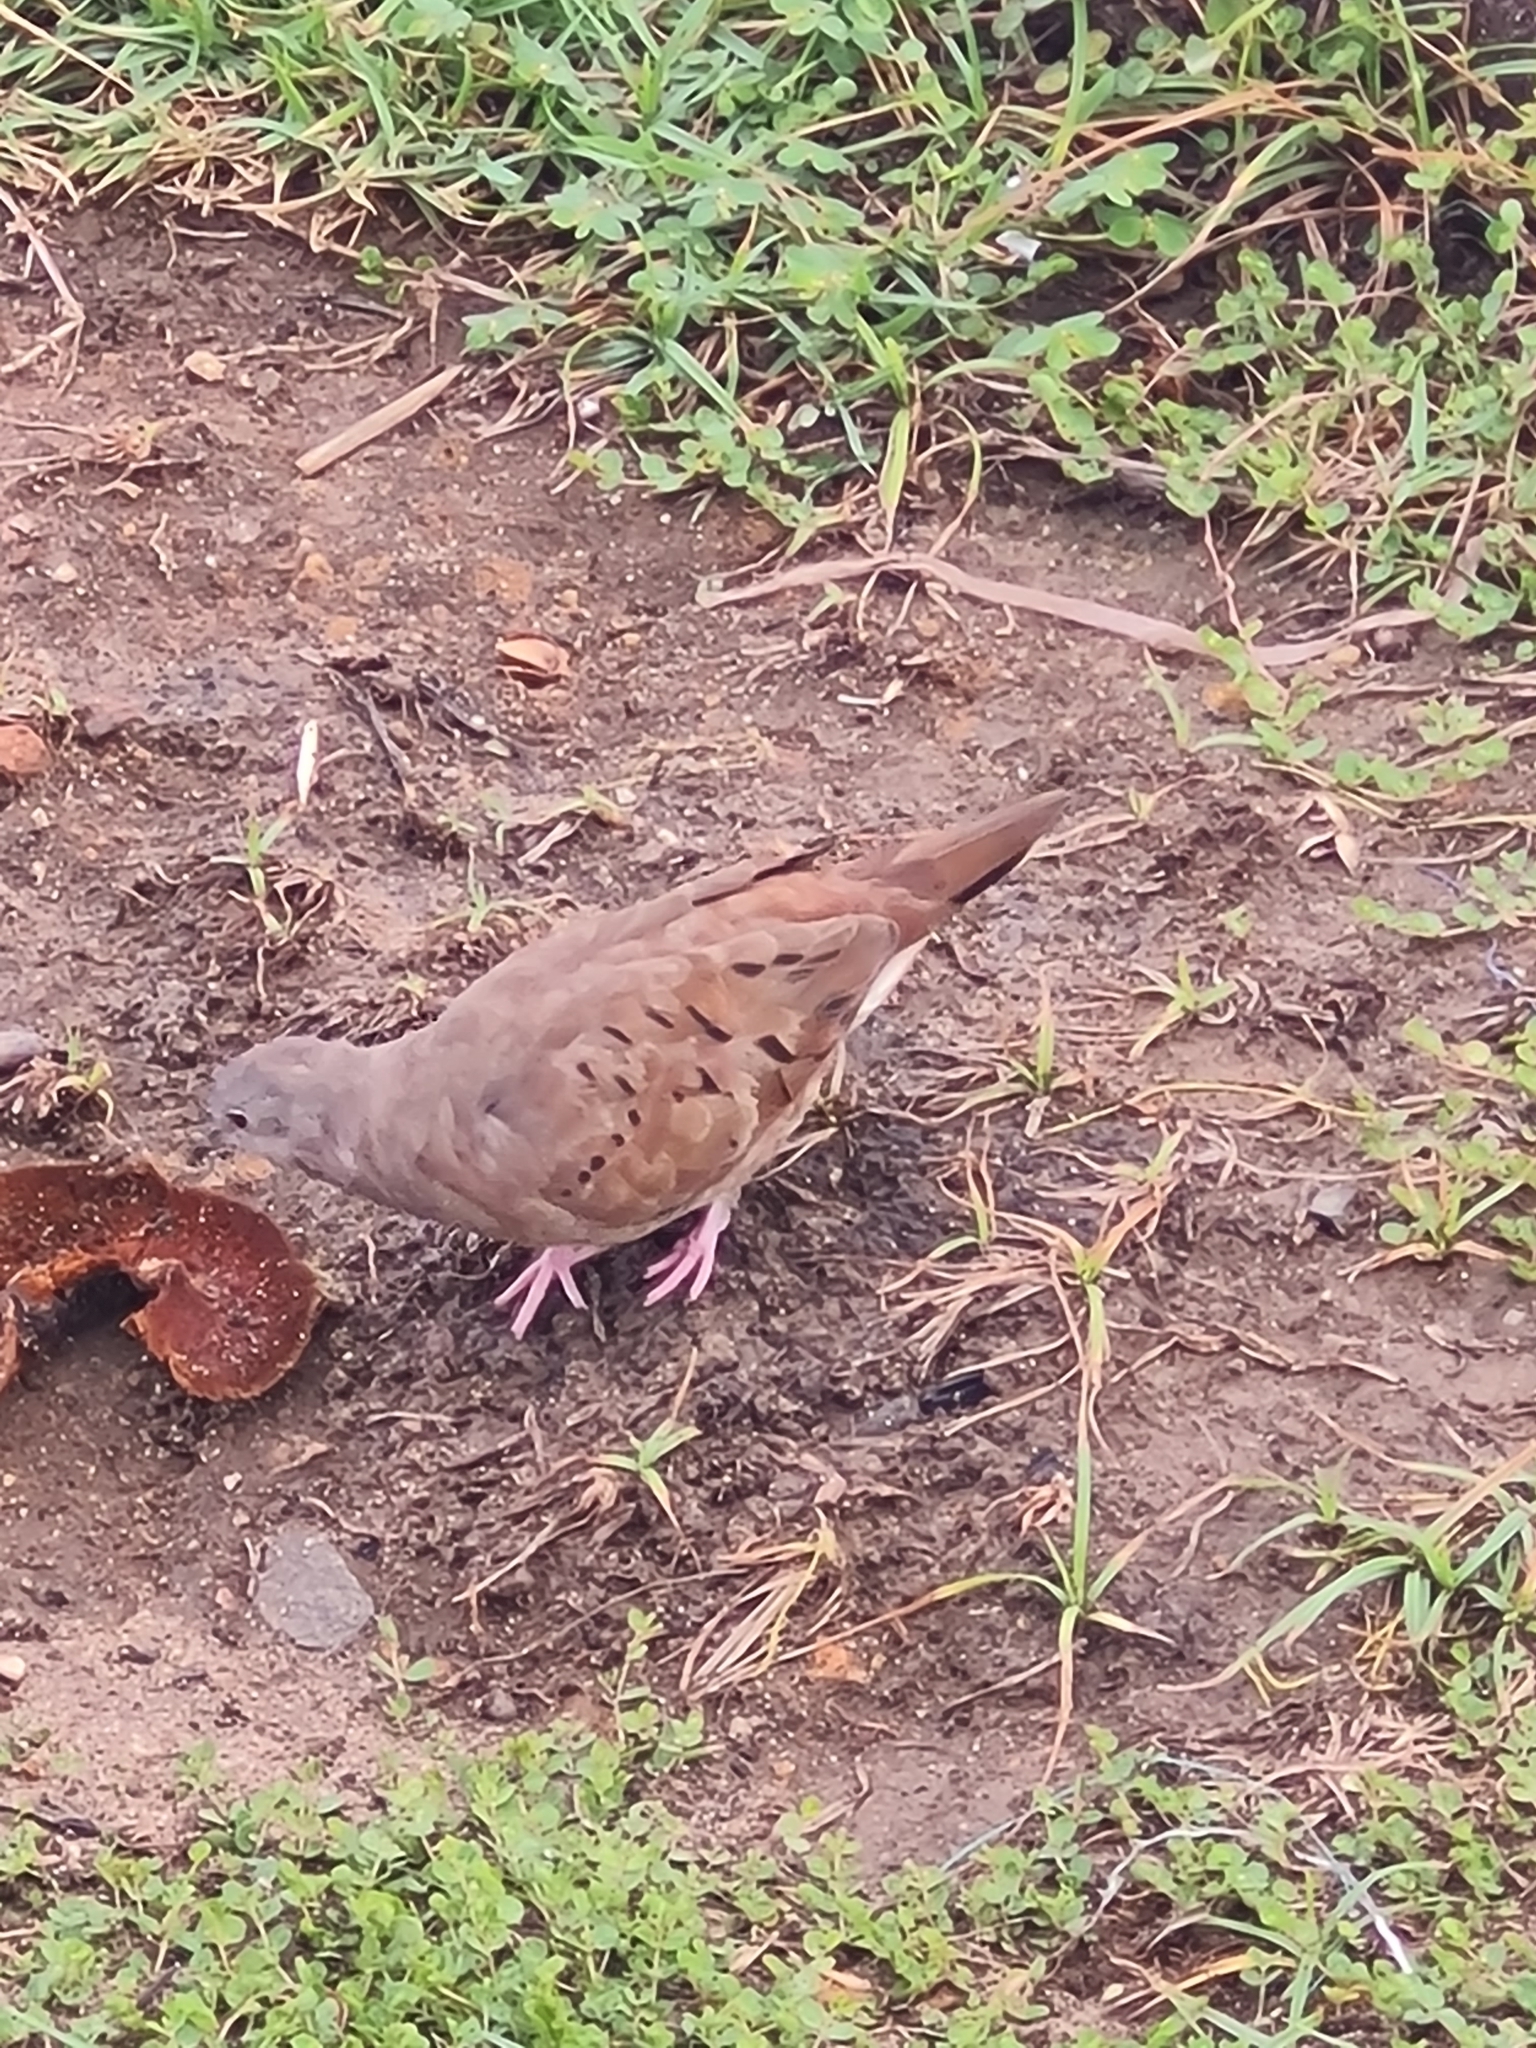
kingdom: Animalia
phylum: Chordata
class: Aves
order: Columbiformes
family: Columbidae
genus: Columbina
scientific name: Columbina talpacoti
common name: Ruddy ground dove
